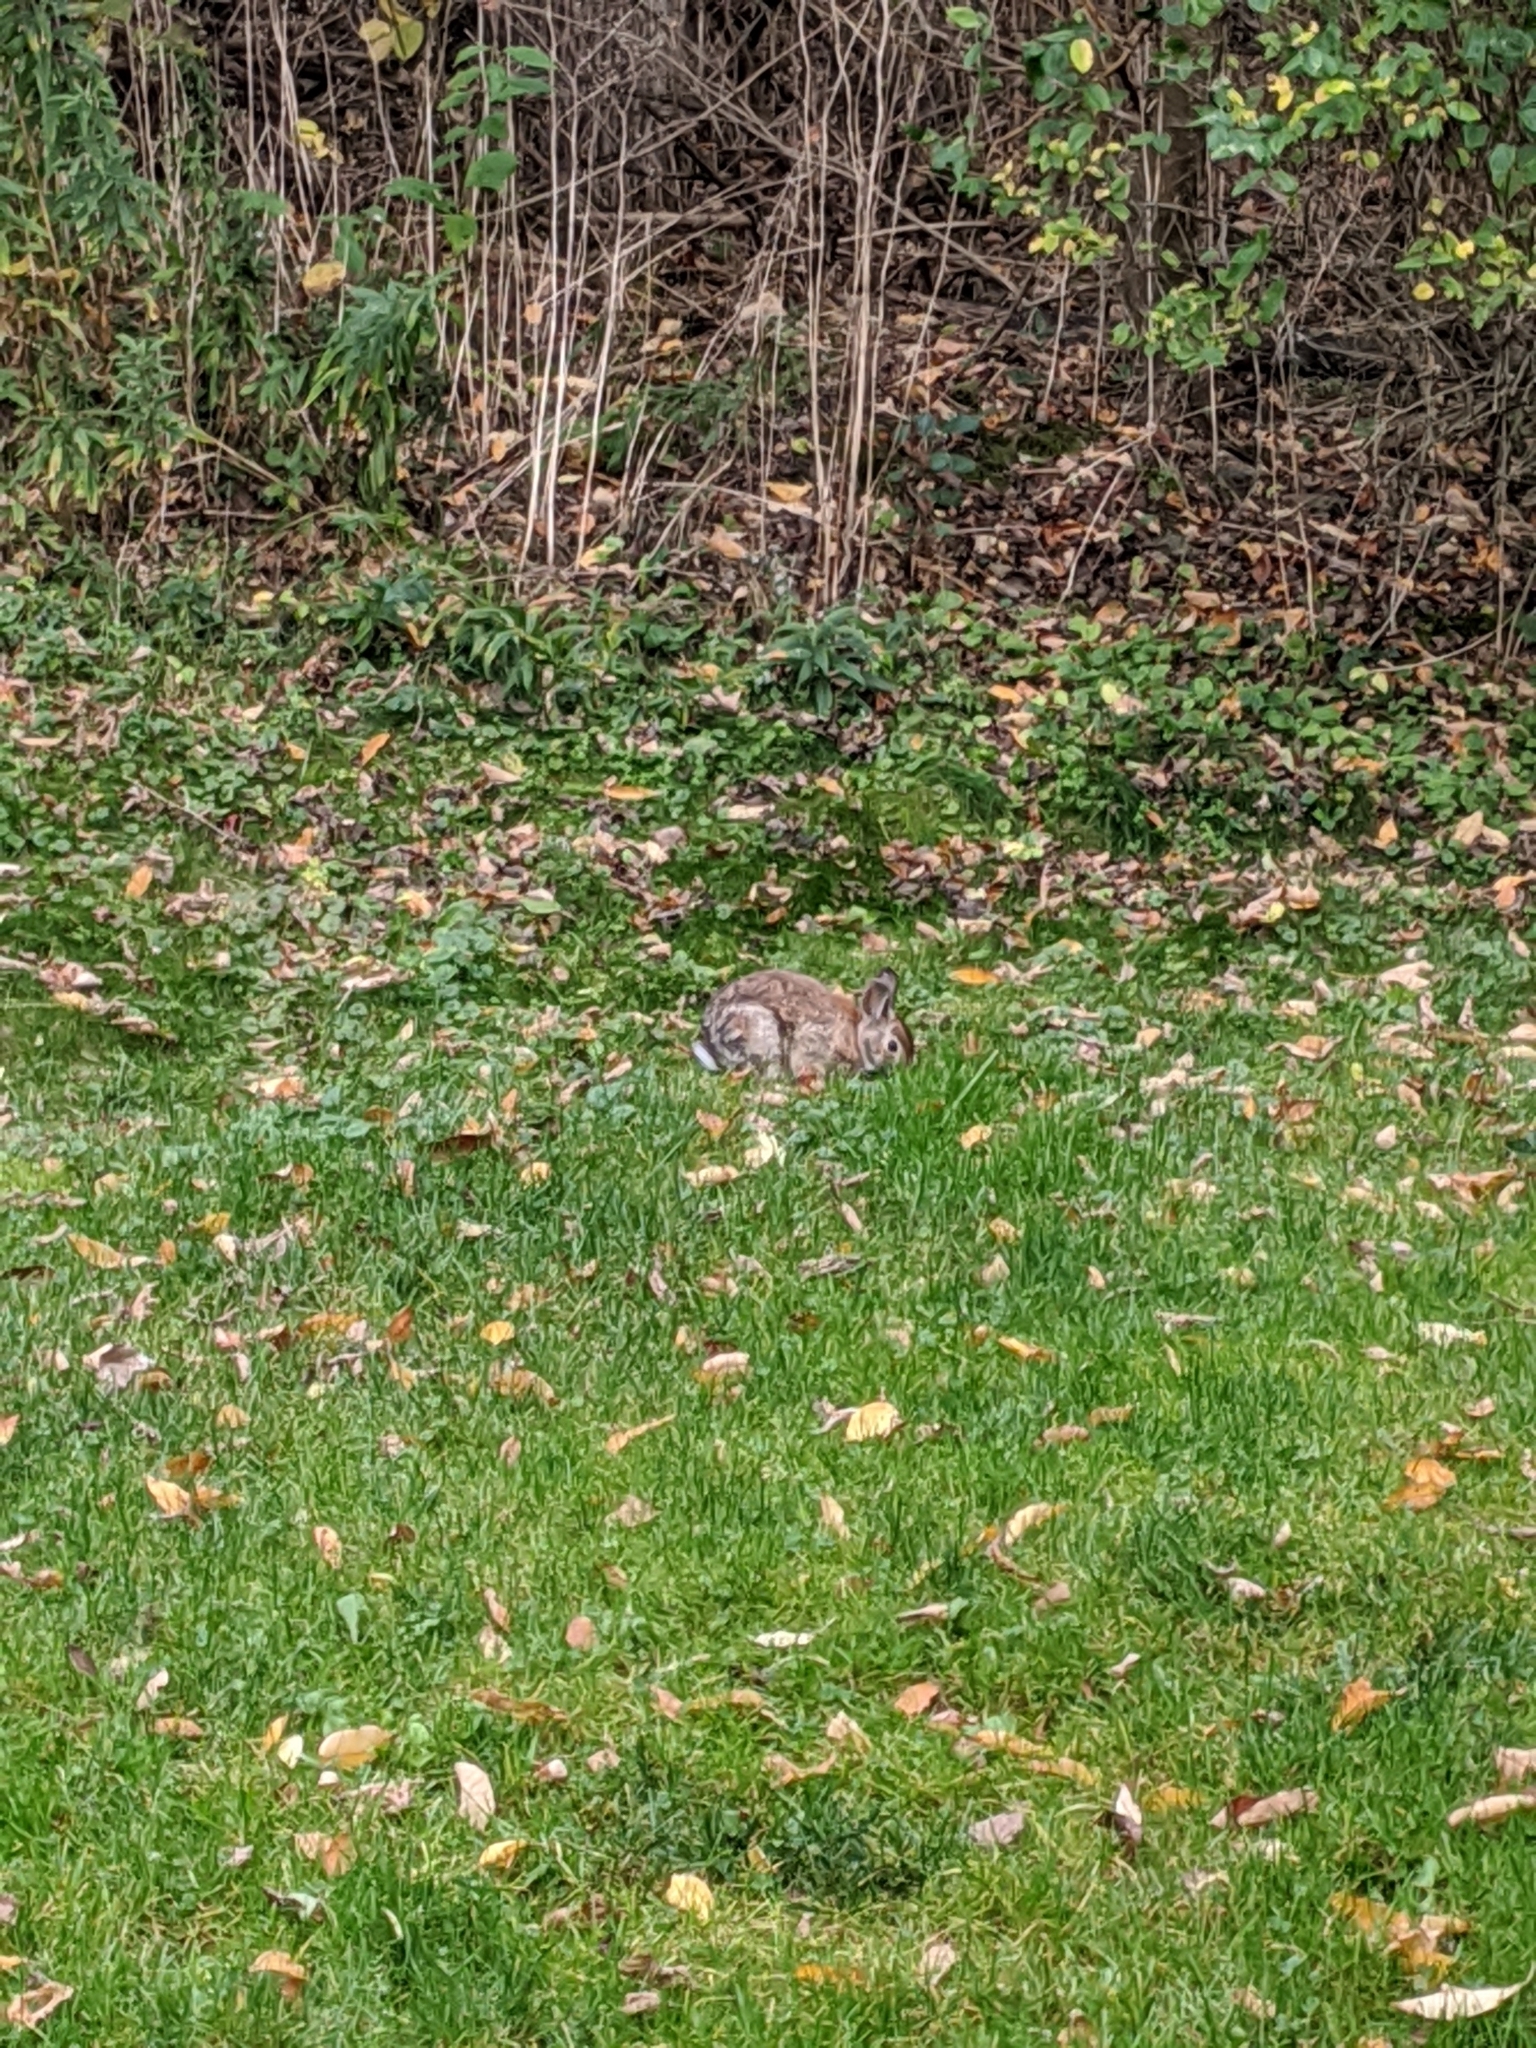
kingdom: Animalia
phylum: Chordata
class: Mammalia
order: Lagomorpha
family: Leporidae
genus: Sylvilagus
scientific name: Sylvilagus floridanus
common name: Eastern cottontail
